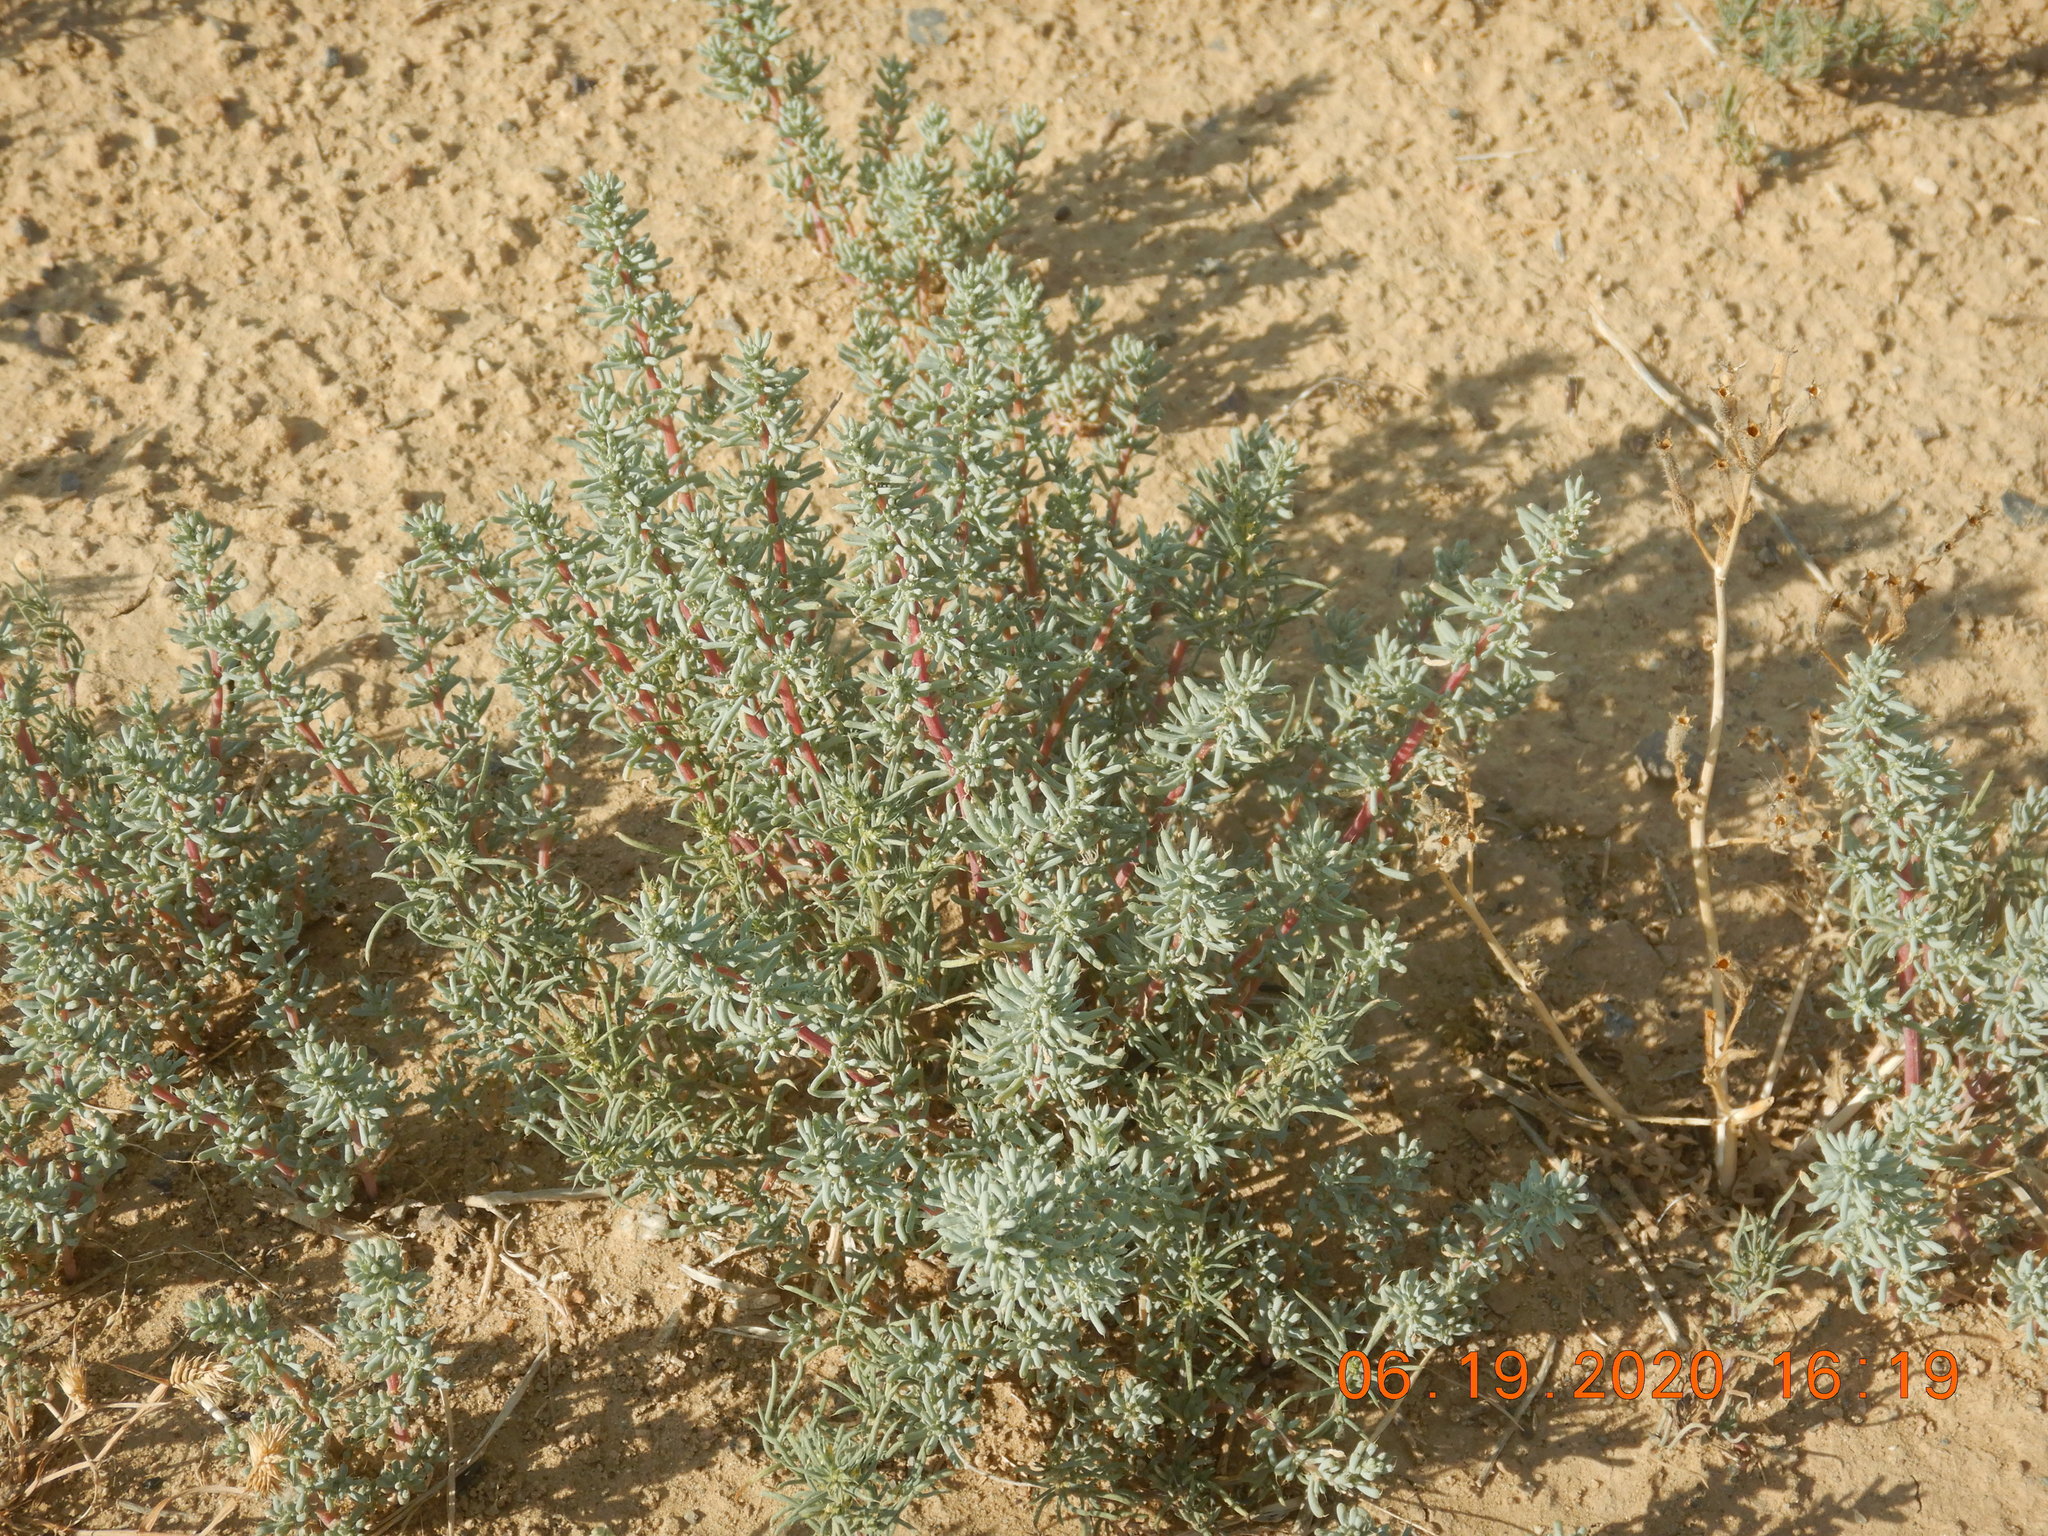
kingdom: Plantae
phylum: Tracheophyta
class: Magnoliopsida
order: Caryophyllales
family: Amaranthaceae
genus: Halogeton
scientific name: Halogeton glomeratus
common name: Saltlover
